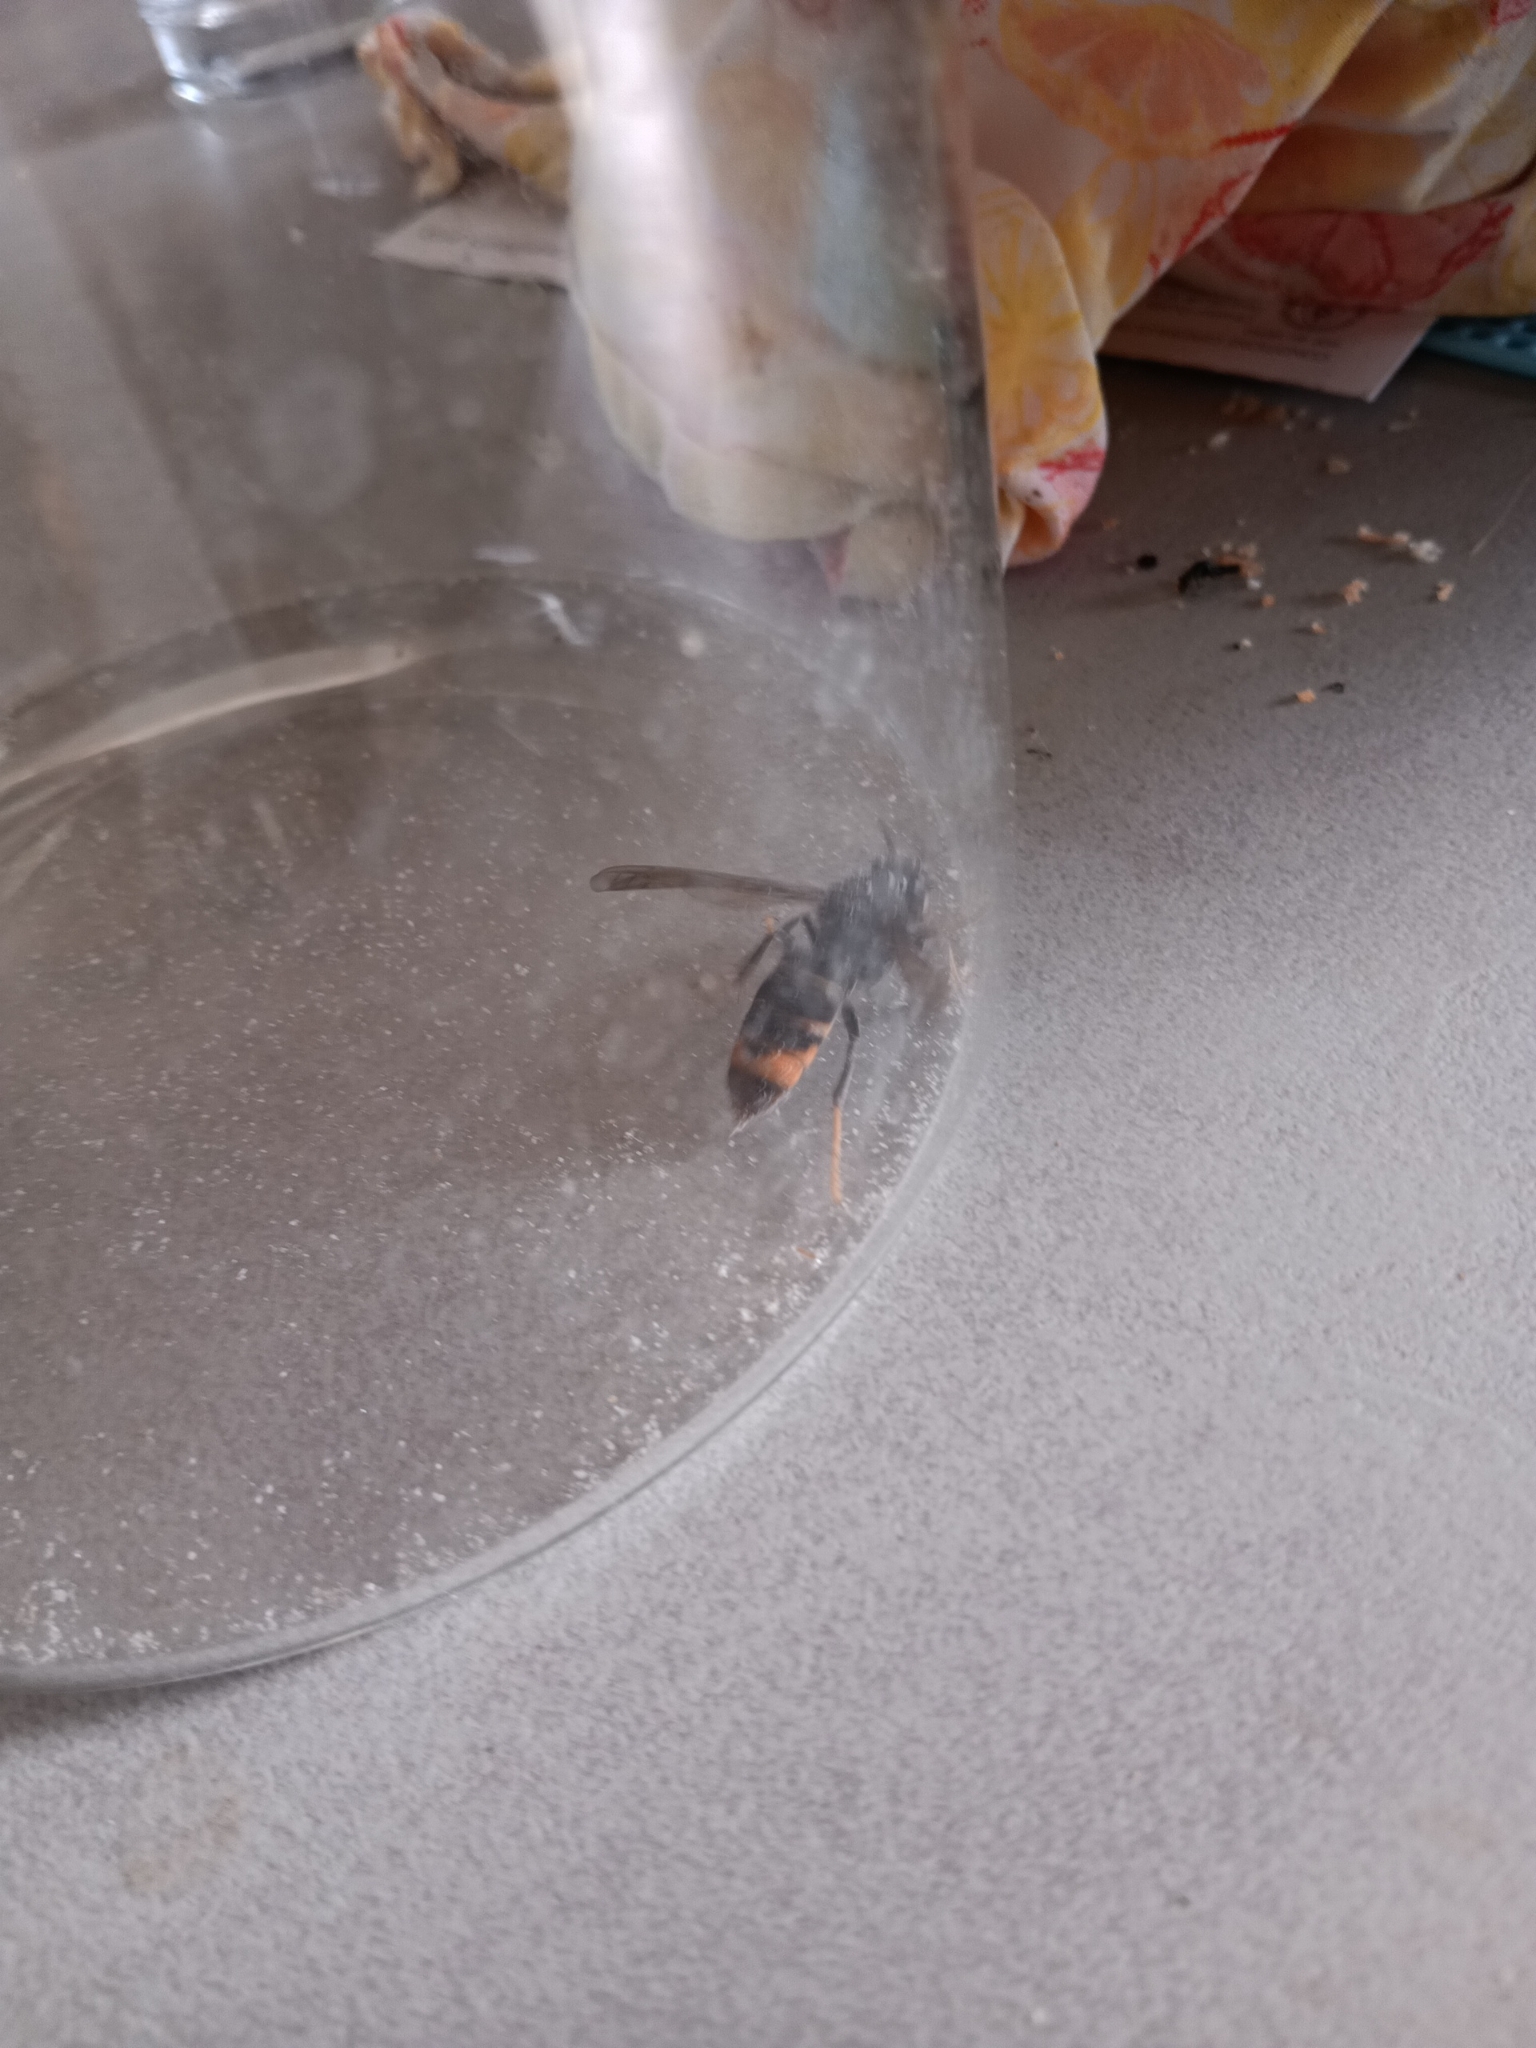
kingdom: Animalia
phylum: Arthropoda
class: Insecta
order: Hymenoptera
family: Vespidae
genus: Vespa
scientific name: Vespa velutina
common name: Asian hornet
